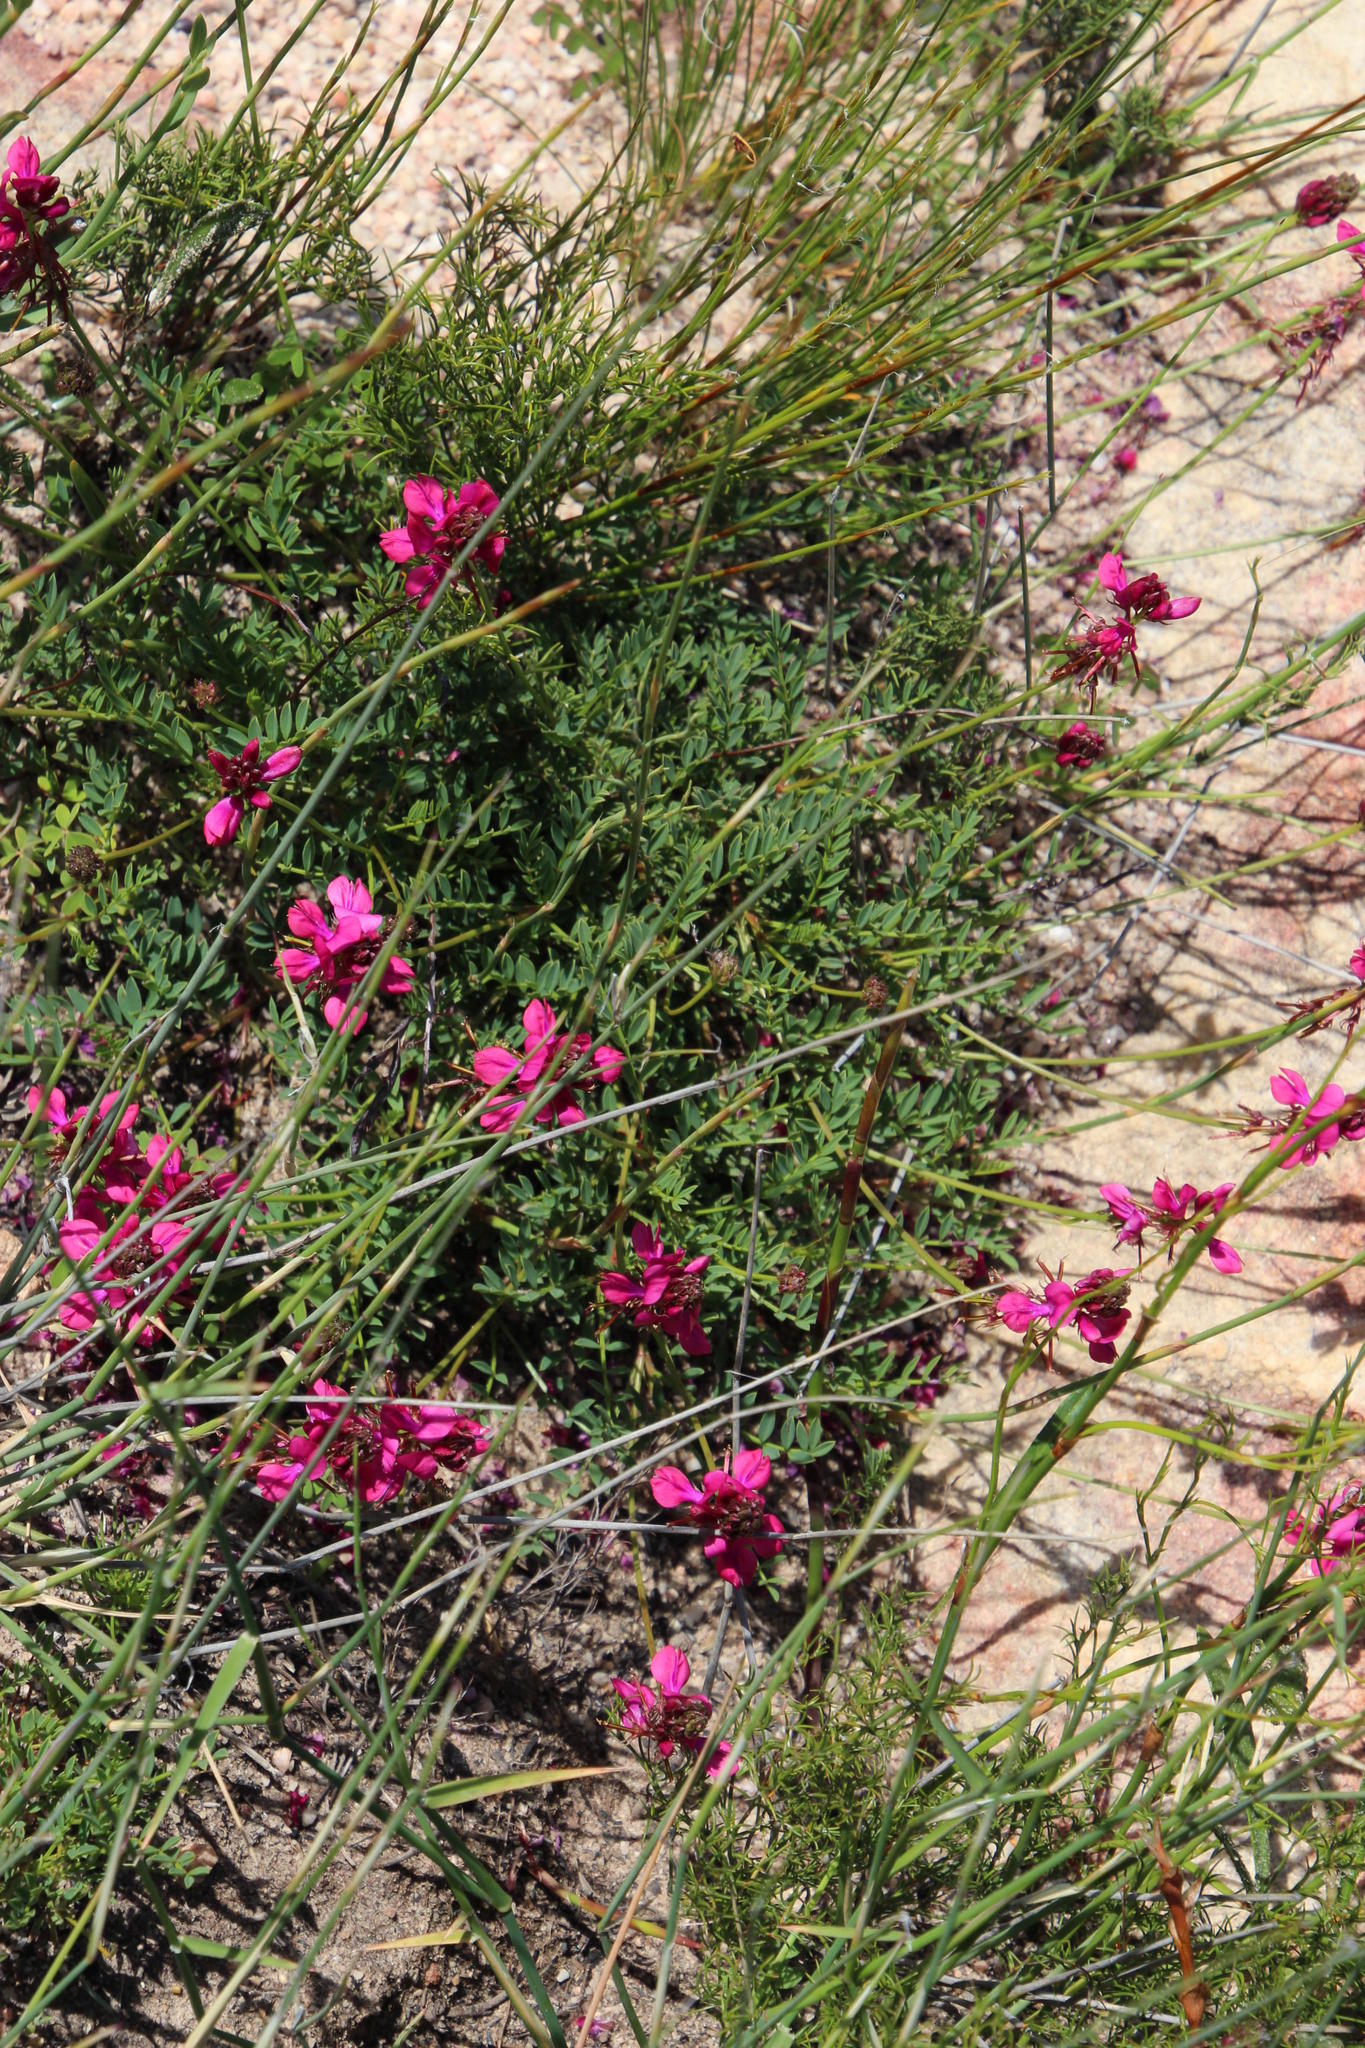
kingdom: Plantae
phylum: Tracheophyta
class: Magnoliopsida
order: Fabales
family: Fabaceae
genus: Indigofera
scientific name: Indigofera capillaris
